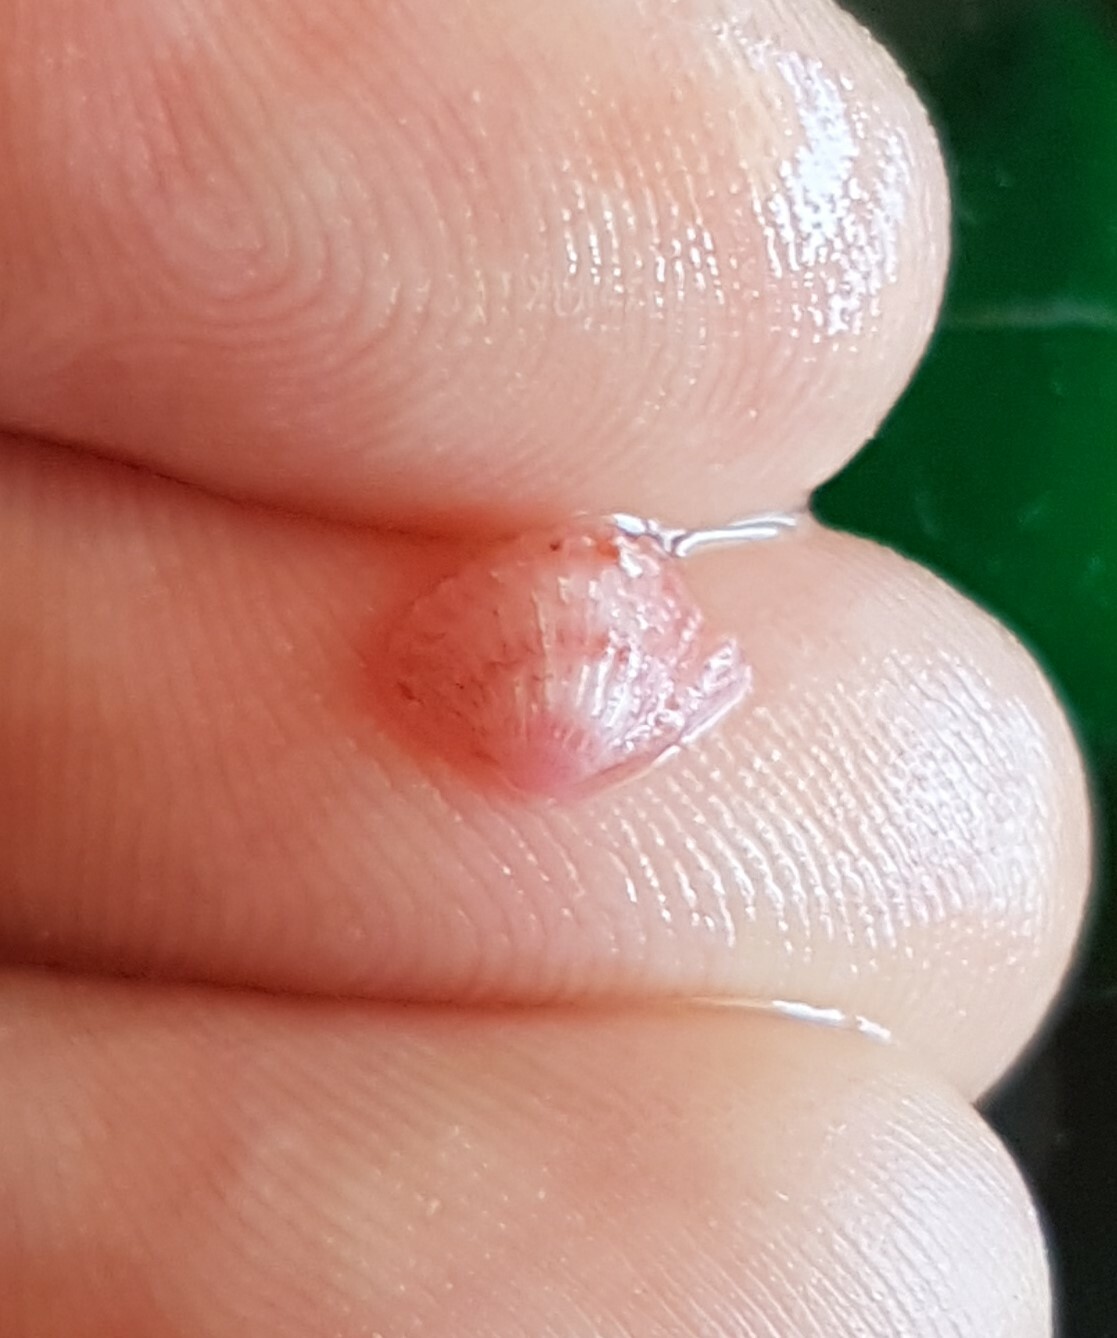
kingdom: Animalia
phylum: Mollusca
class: Bivalvia
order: Carditida
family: Carditidae
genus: Glans
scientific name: Glans trapezia
